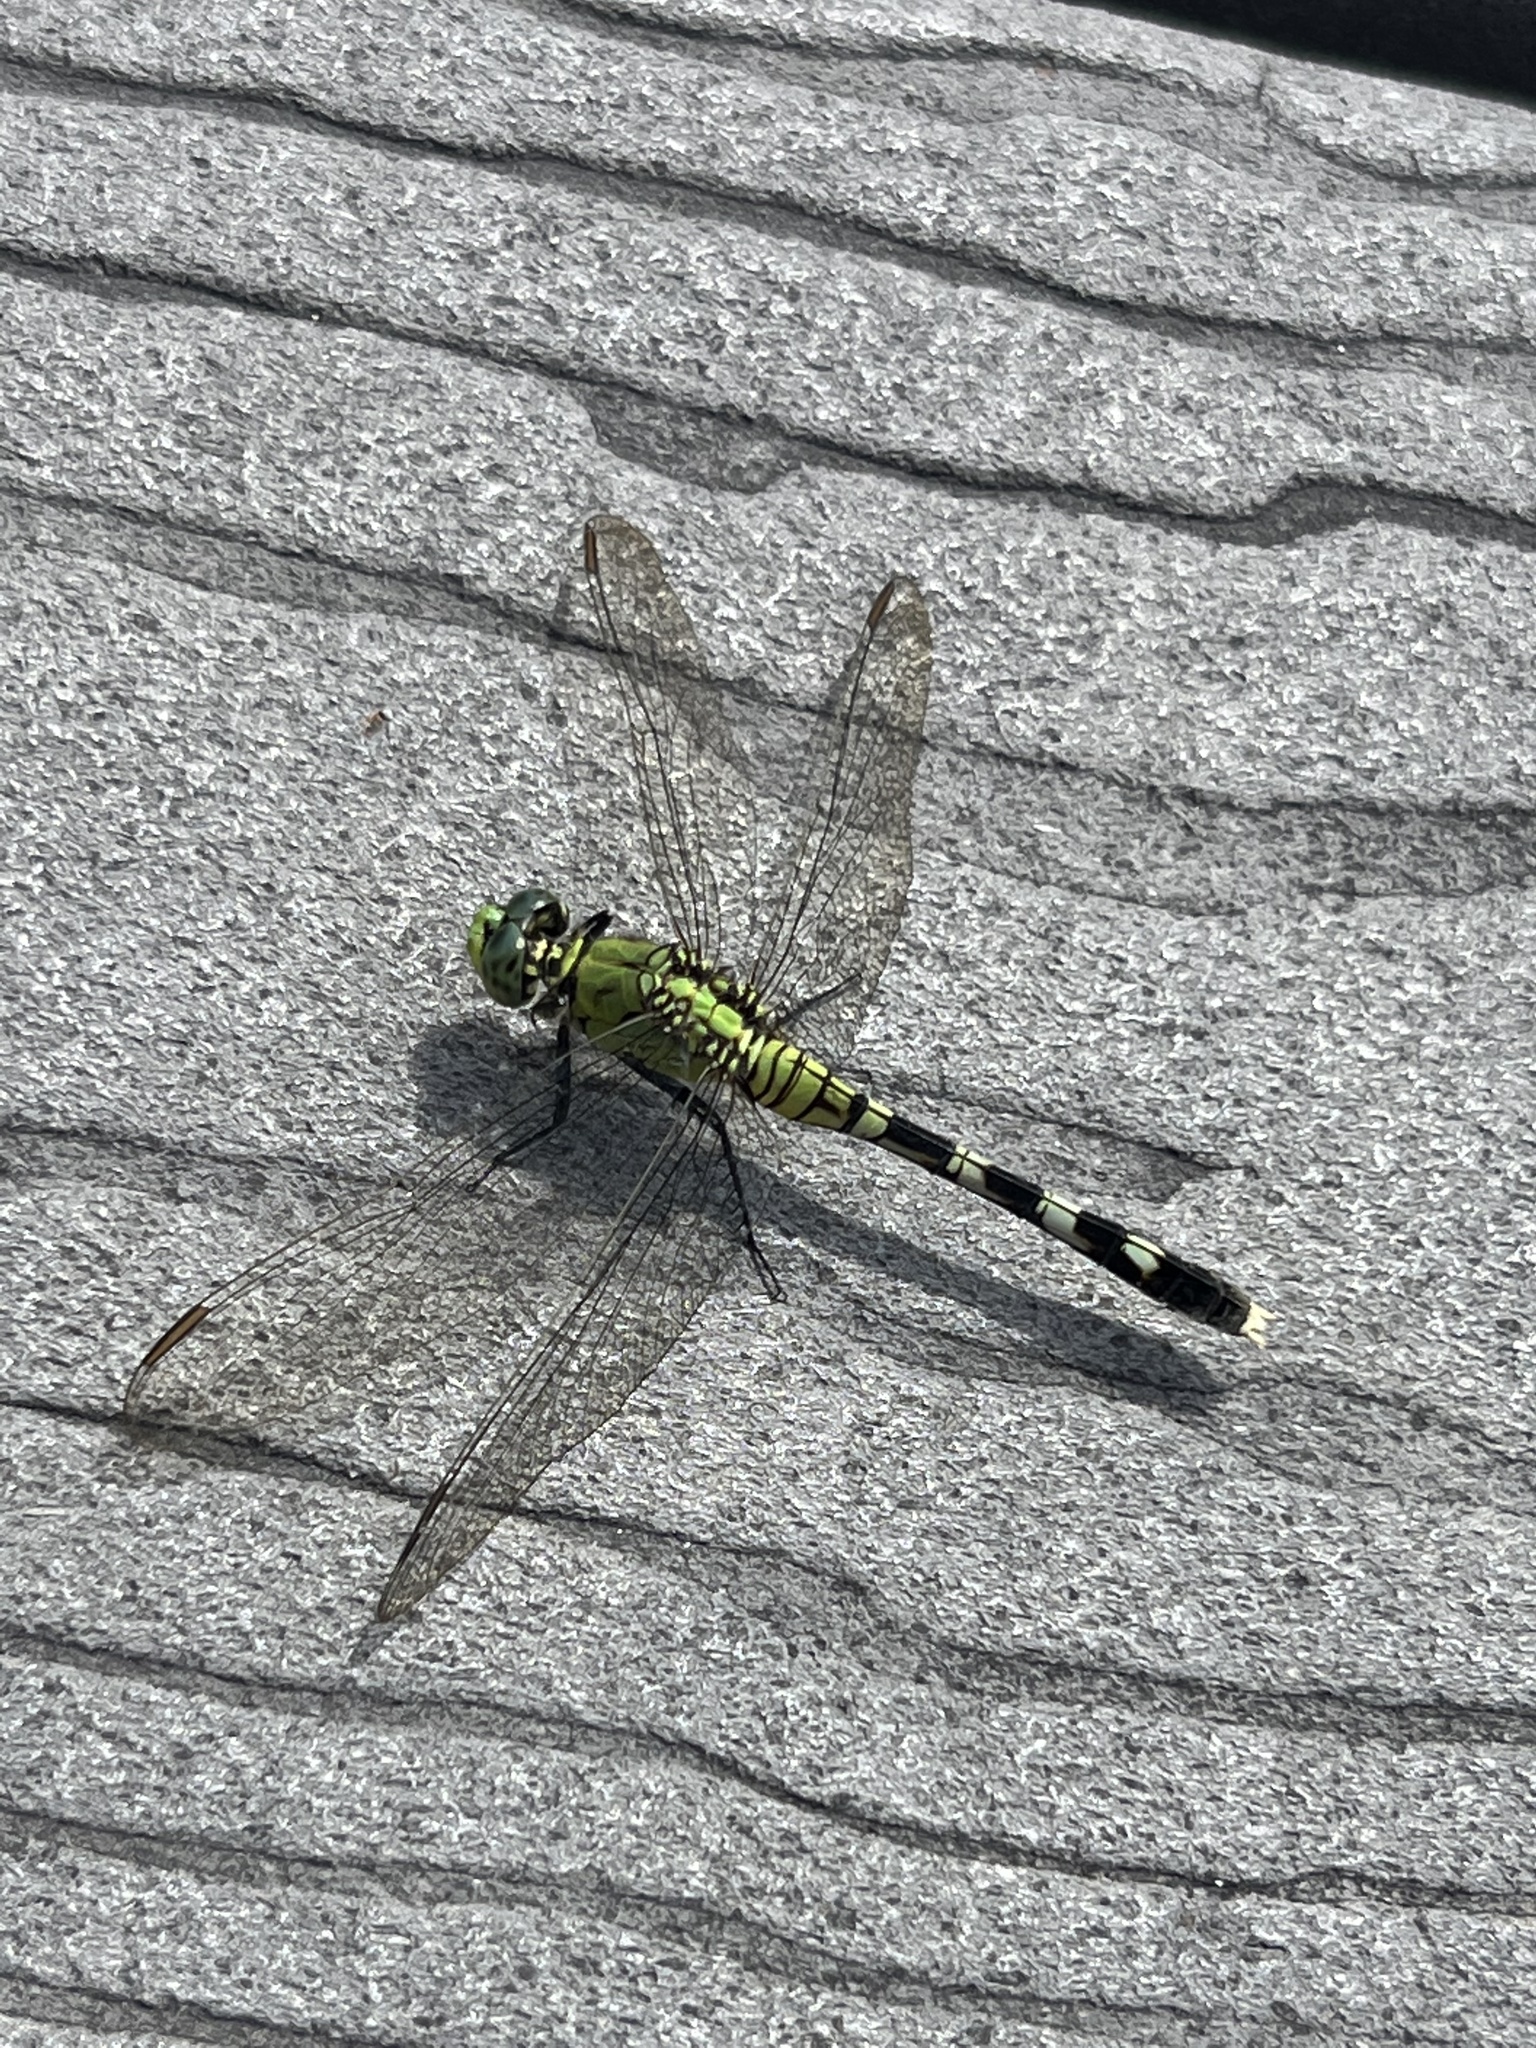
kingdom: Animalia
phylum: Arthropoda
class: Insecta
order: Odonata
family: Libellulidae
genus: Erythemis
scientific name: Erythemis simplicicollis
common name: Eastern pondhawk
